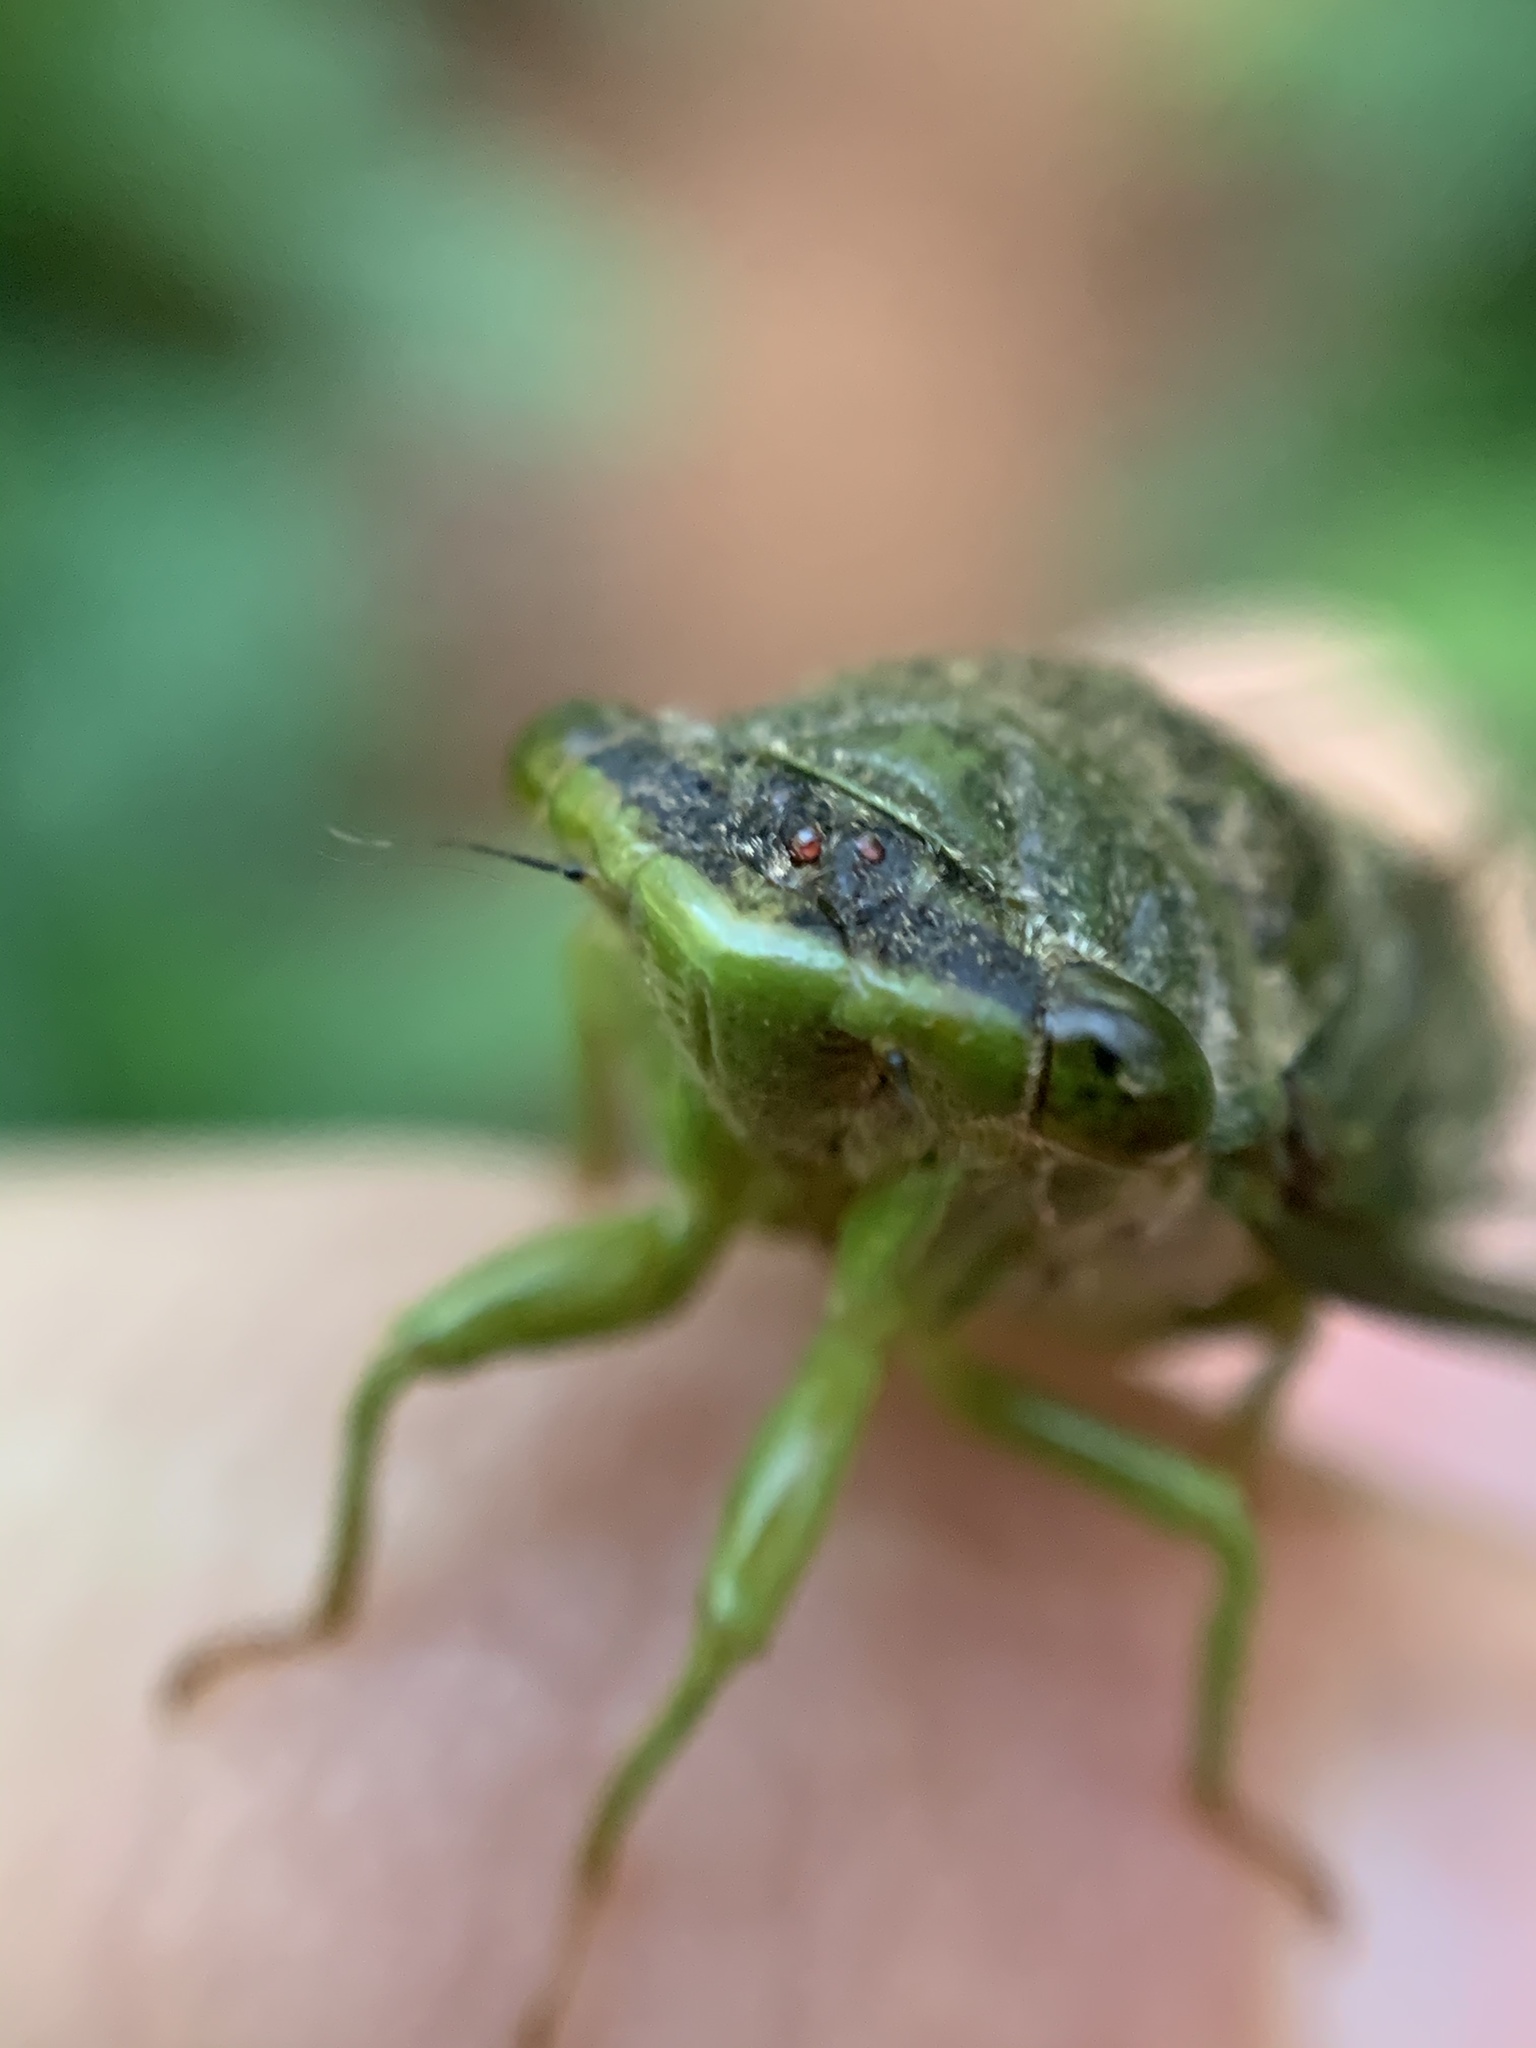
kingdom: Animalia
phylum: Arthropoda
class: Insecta
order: Hemiptera
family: Cicadidae
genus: Acanthoventris
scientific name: Acanthoventris drewseni
